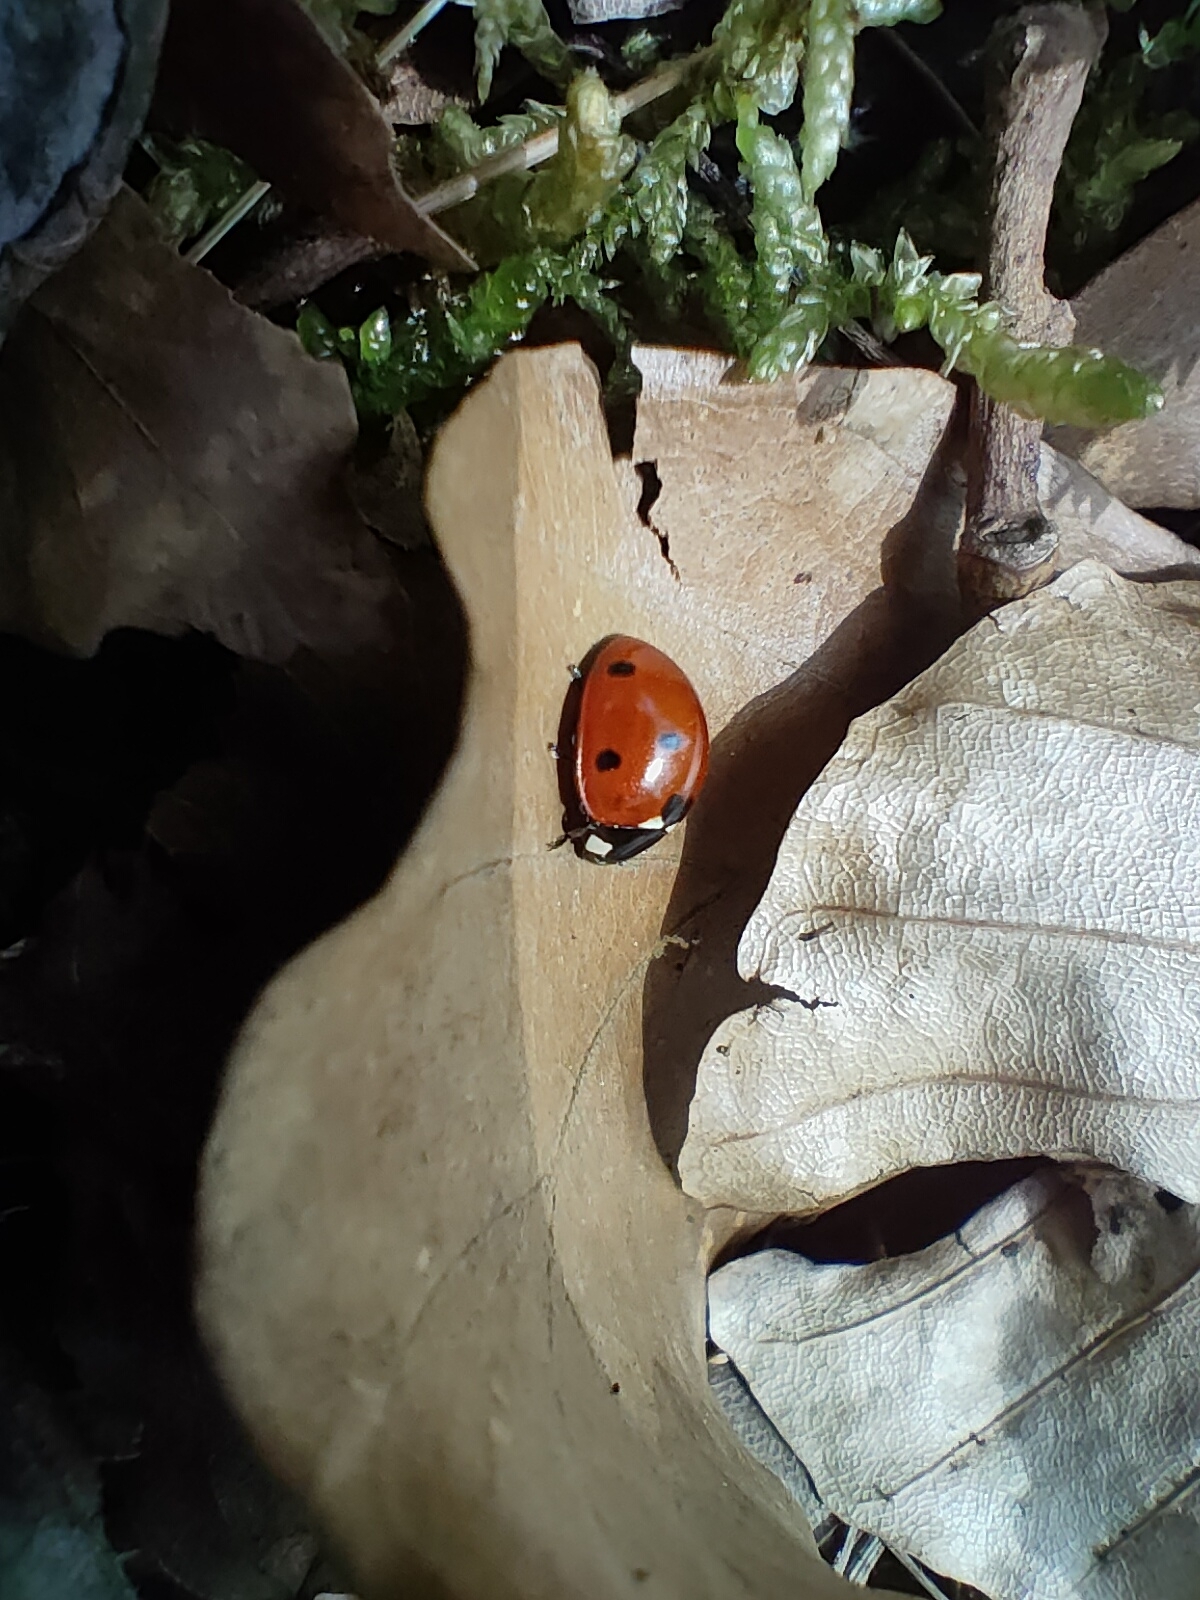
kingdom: Animalia
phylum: Arthropoda
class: Insecta
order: Coleoptera
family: Coccinellidae
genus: Coccinella
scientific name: Coccinella septempunctata
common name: Sevenspotted lady beetle
